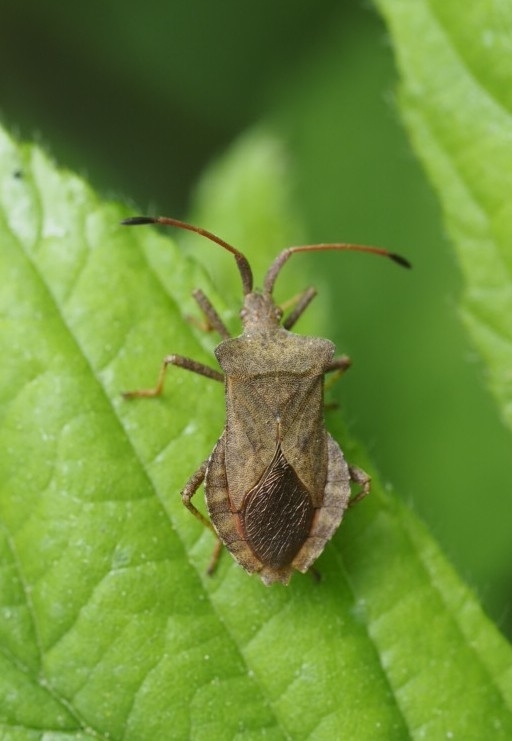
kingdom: Animalia
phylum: Arthropoda
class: Insecta
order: Hemiptera
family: Coreidae
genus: Coreus
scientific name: Coreus marginatus
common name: Dock bug
